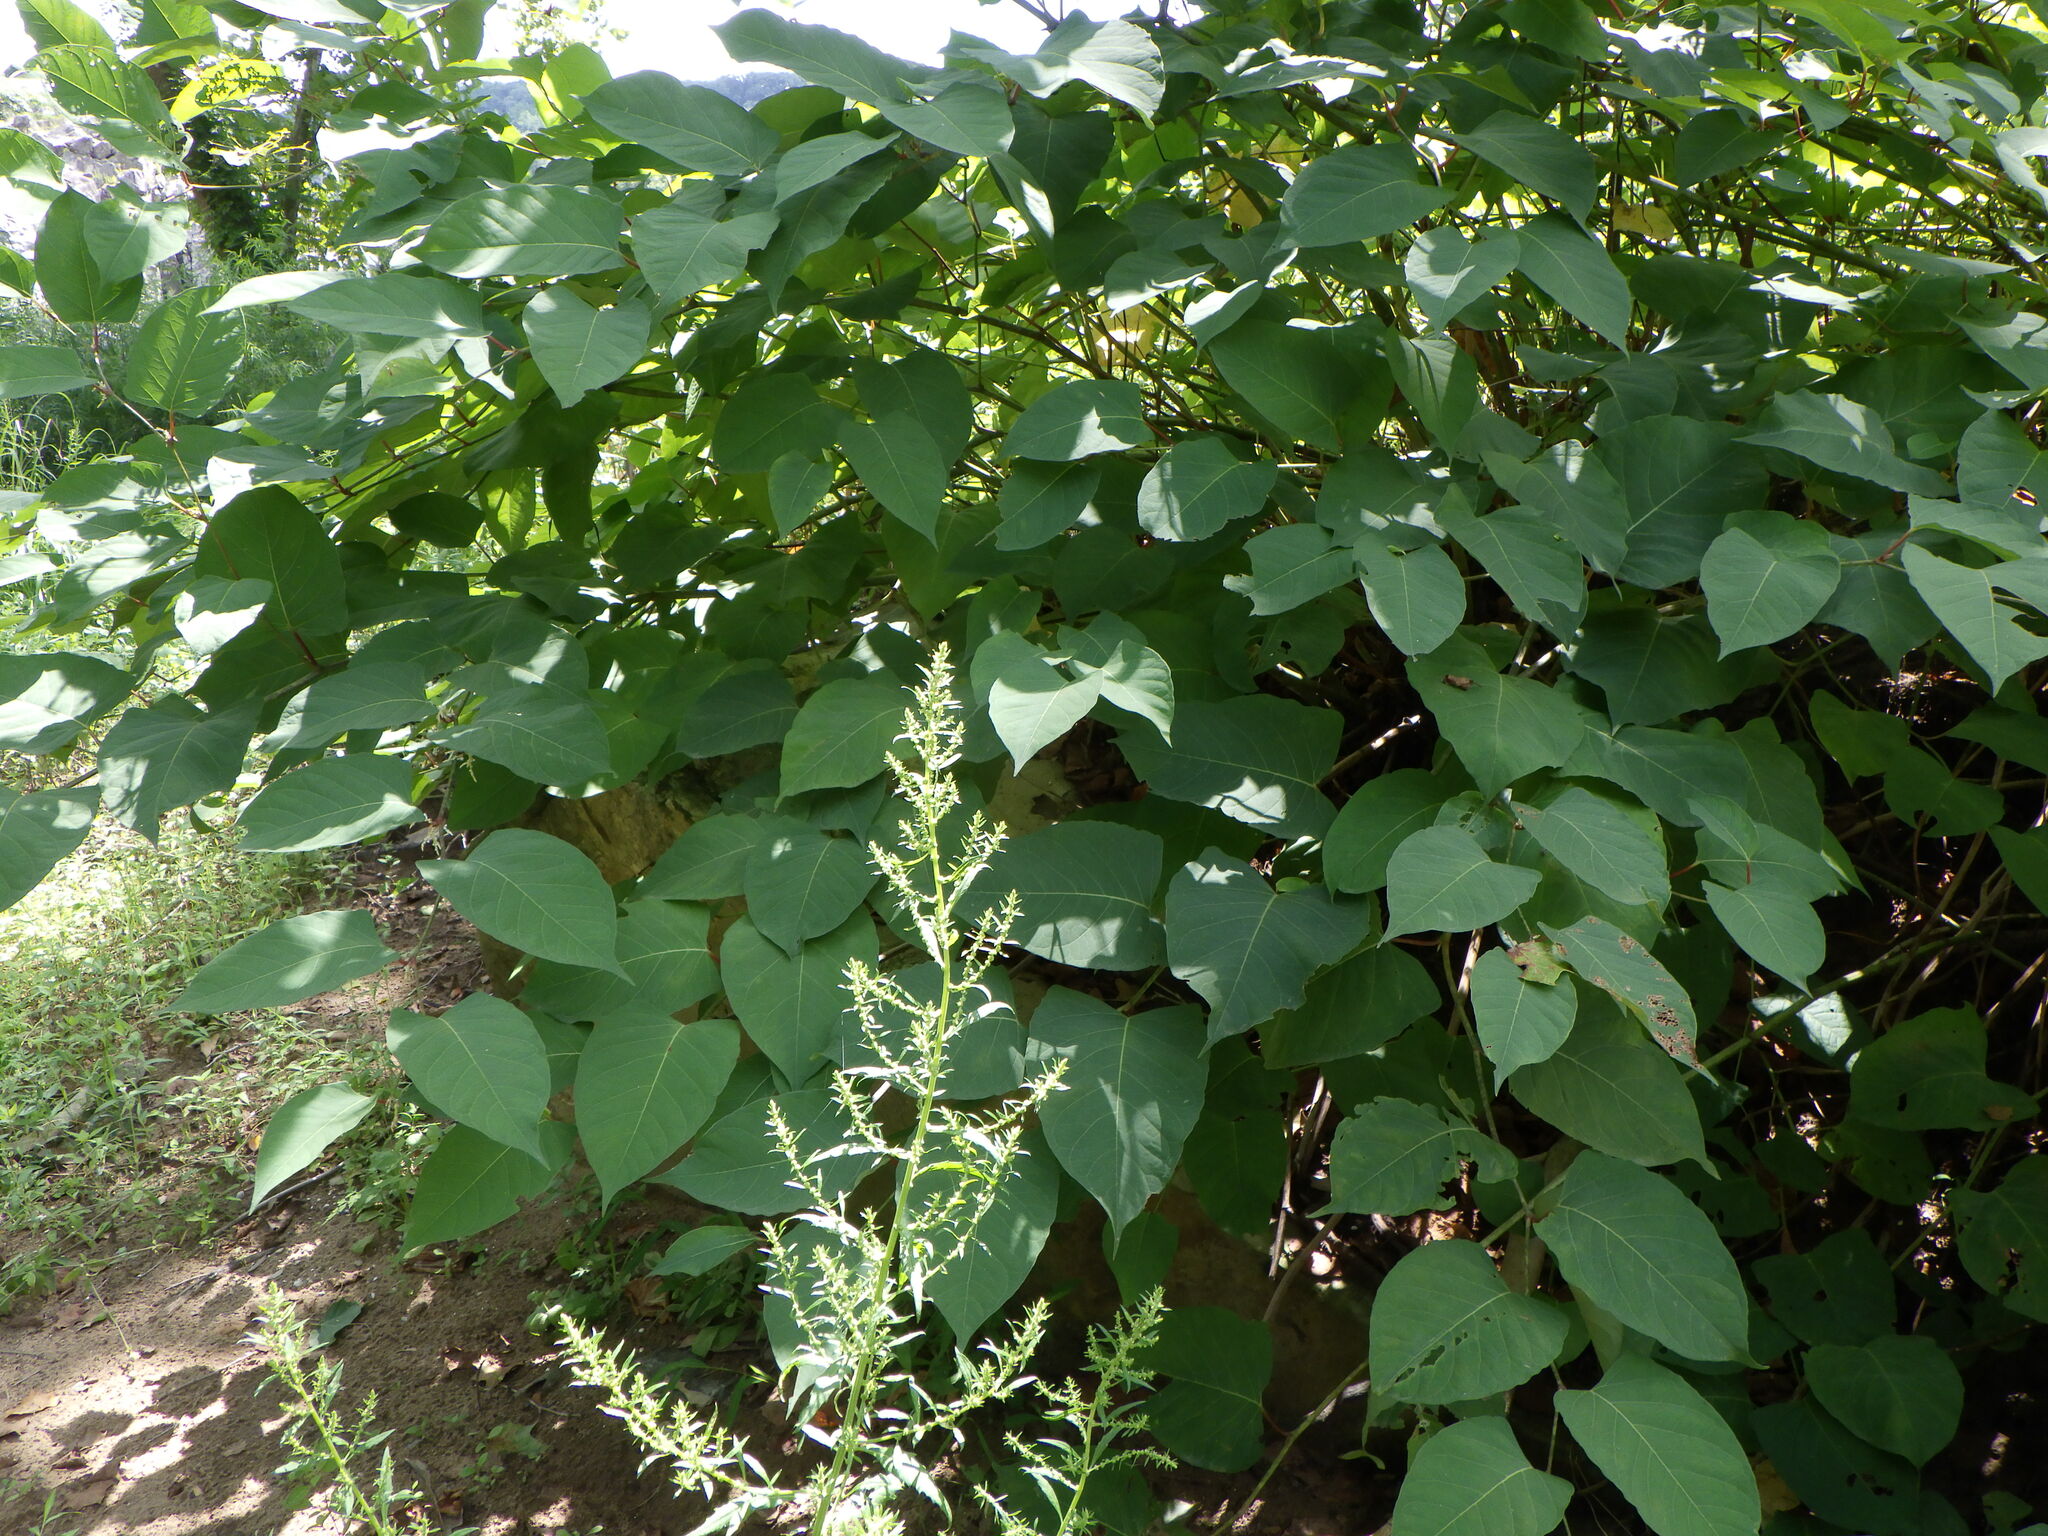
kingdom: Plantae
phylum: Tracheophyta
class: Magnoliopsida
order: Caryophyllales
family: Polygonaceae
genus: Reynoutria
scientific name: Reynoutria japonica
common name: Japanese knotweed
